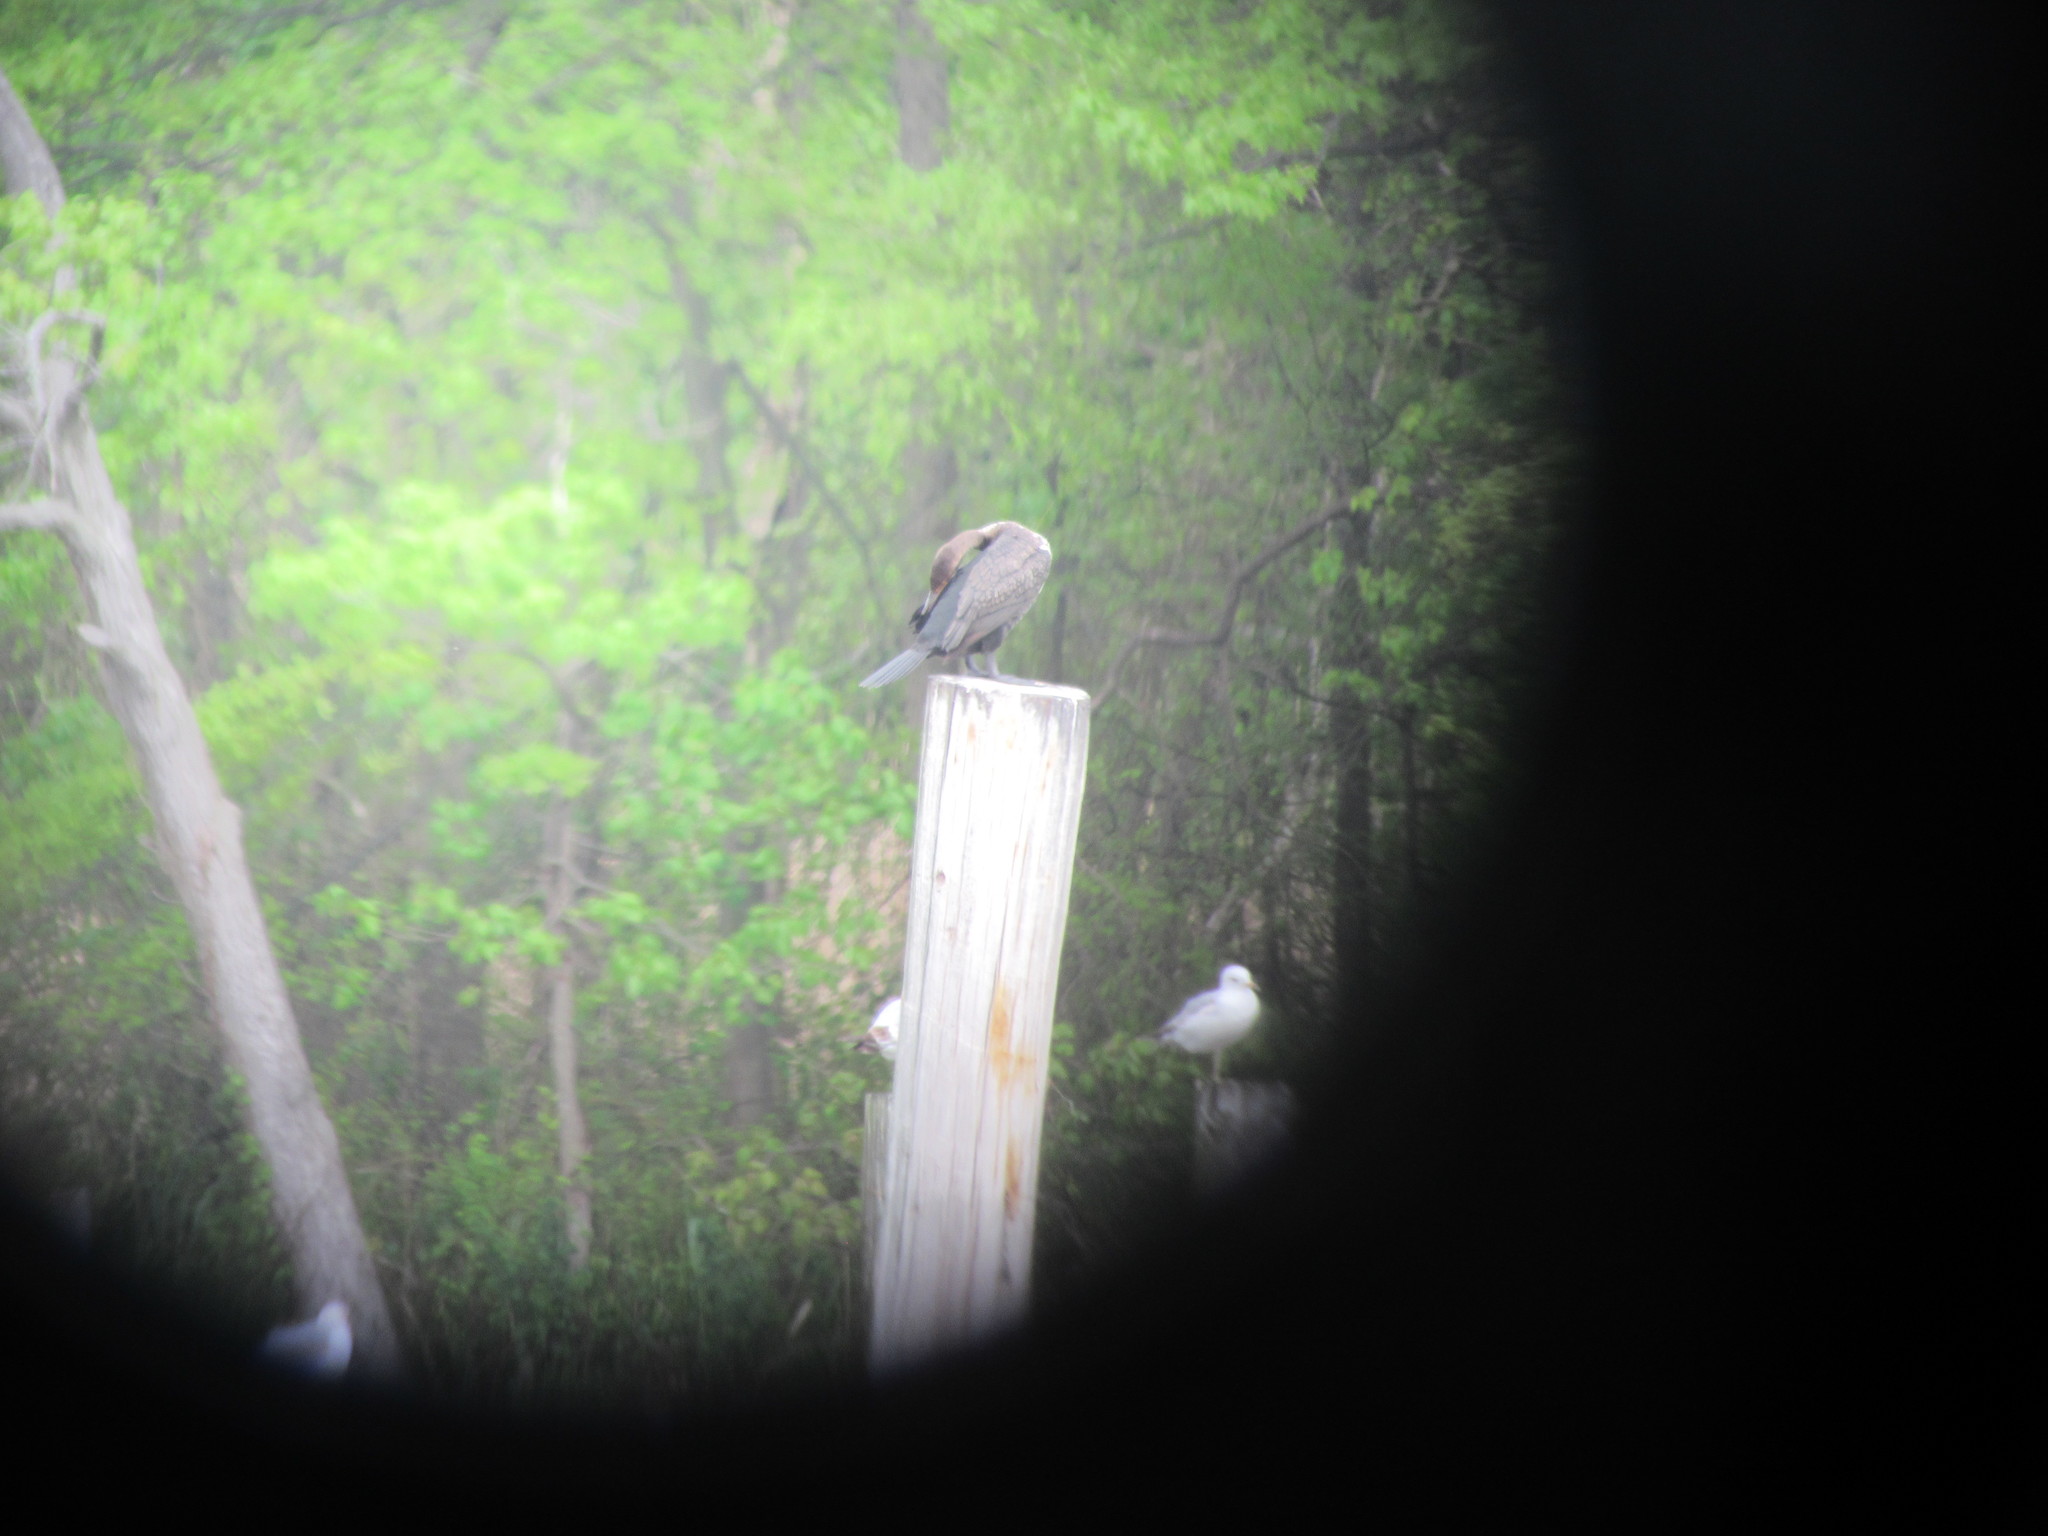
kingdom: Animalia
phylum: Chordata
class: Aves
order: Suliformes
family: Phalacrocoracidae
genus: Phalacrocorax
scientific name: Phalacrocorax auritus
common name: Double-crested cormorant
